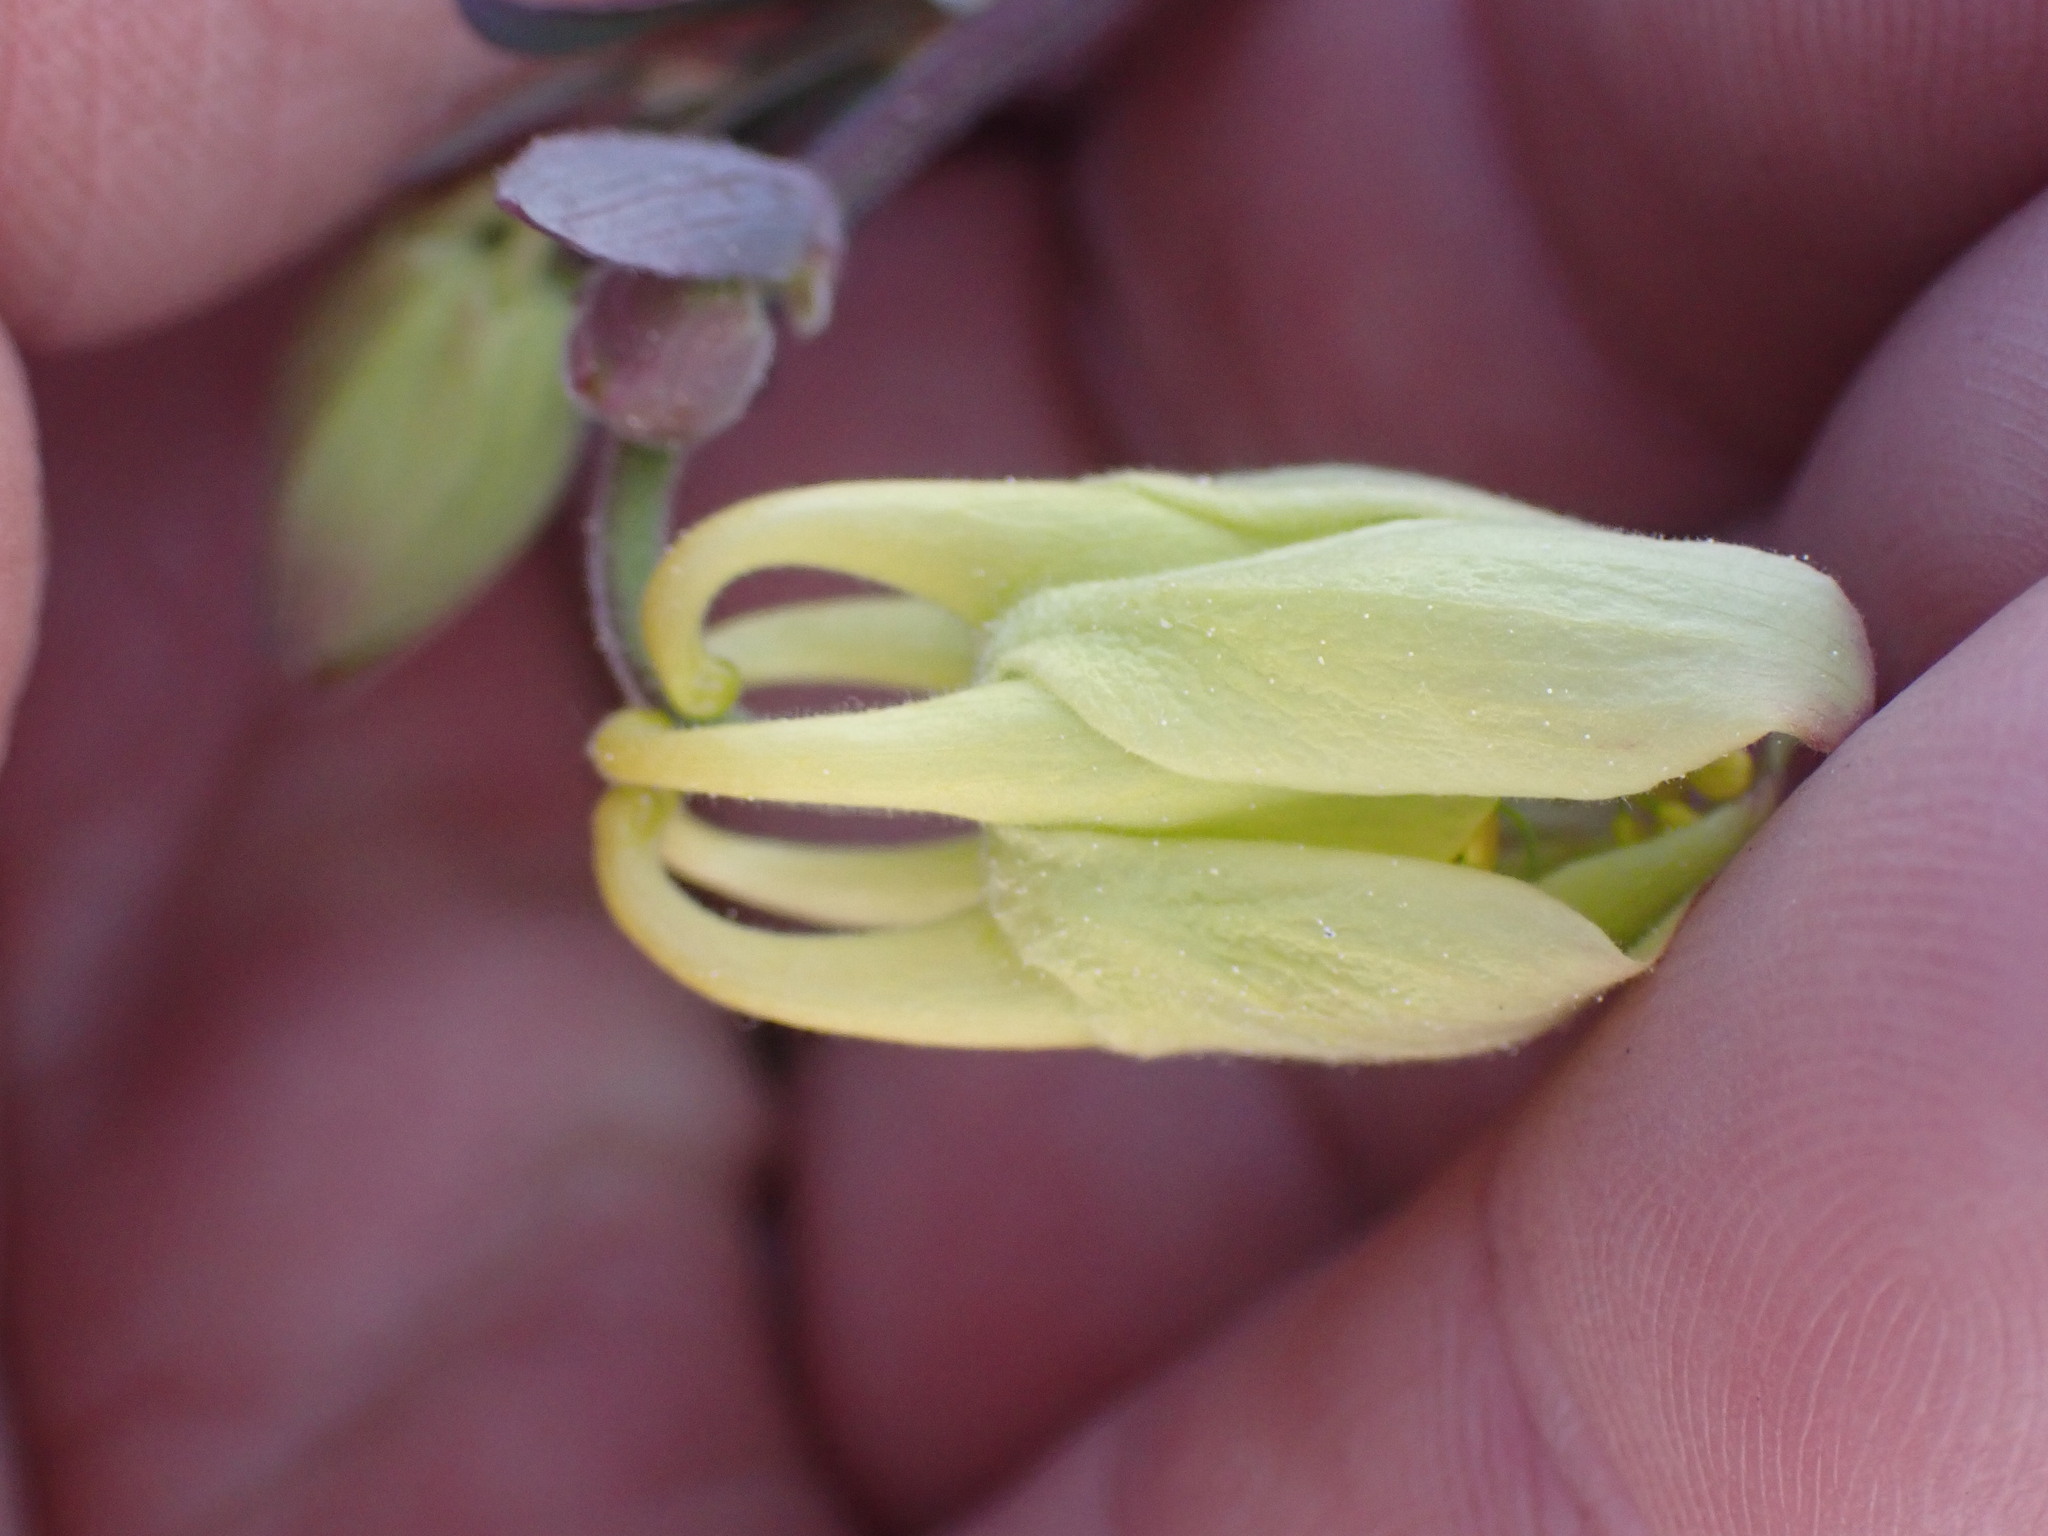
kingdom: Plantae
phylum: Tracheophyta
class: Magnoliopsida
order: Ranunculales
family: Ranunculaceae
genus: Aquilegia
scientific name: Aquilegia flavescens
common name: Yellow columbine
